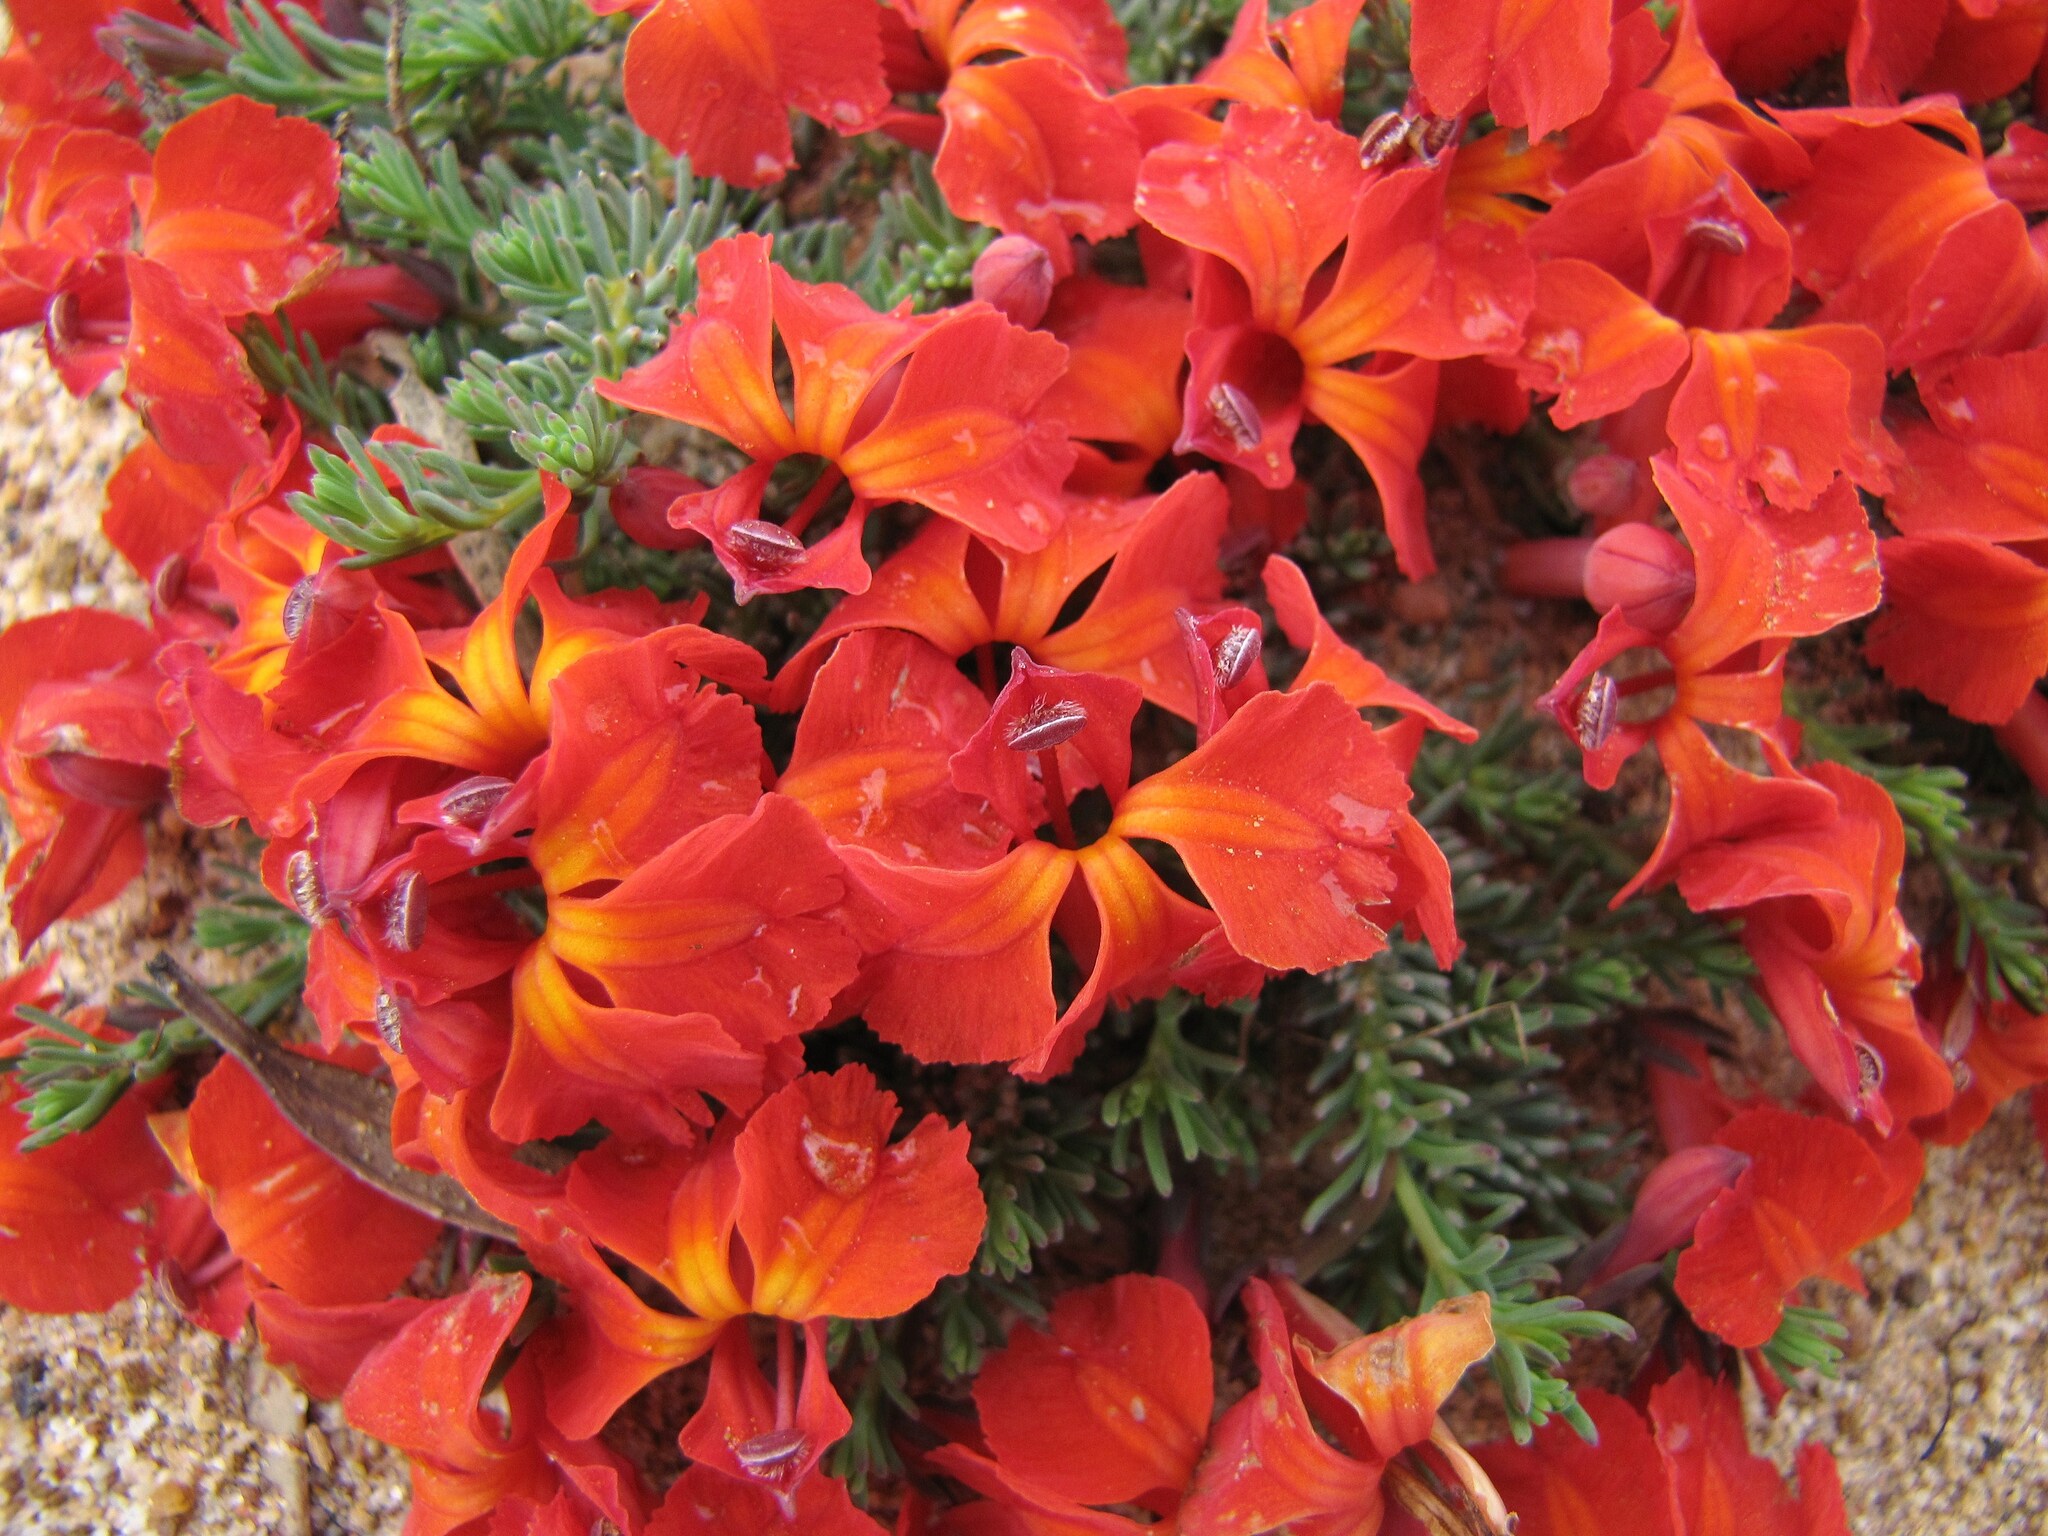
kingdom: Plantae
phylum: Tracheophyta
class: Magnoliopsida
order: Asterales
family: Goodeniaceae
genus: Lechenaultia
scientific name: Lechenaultia formosa
